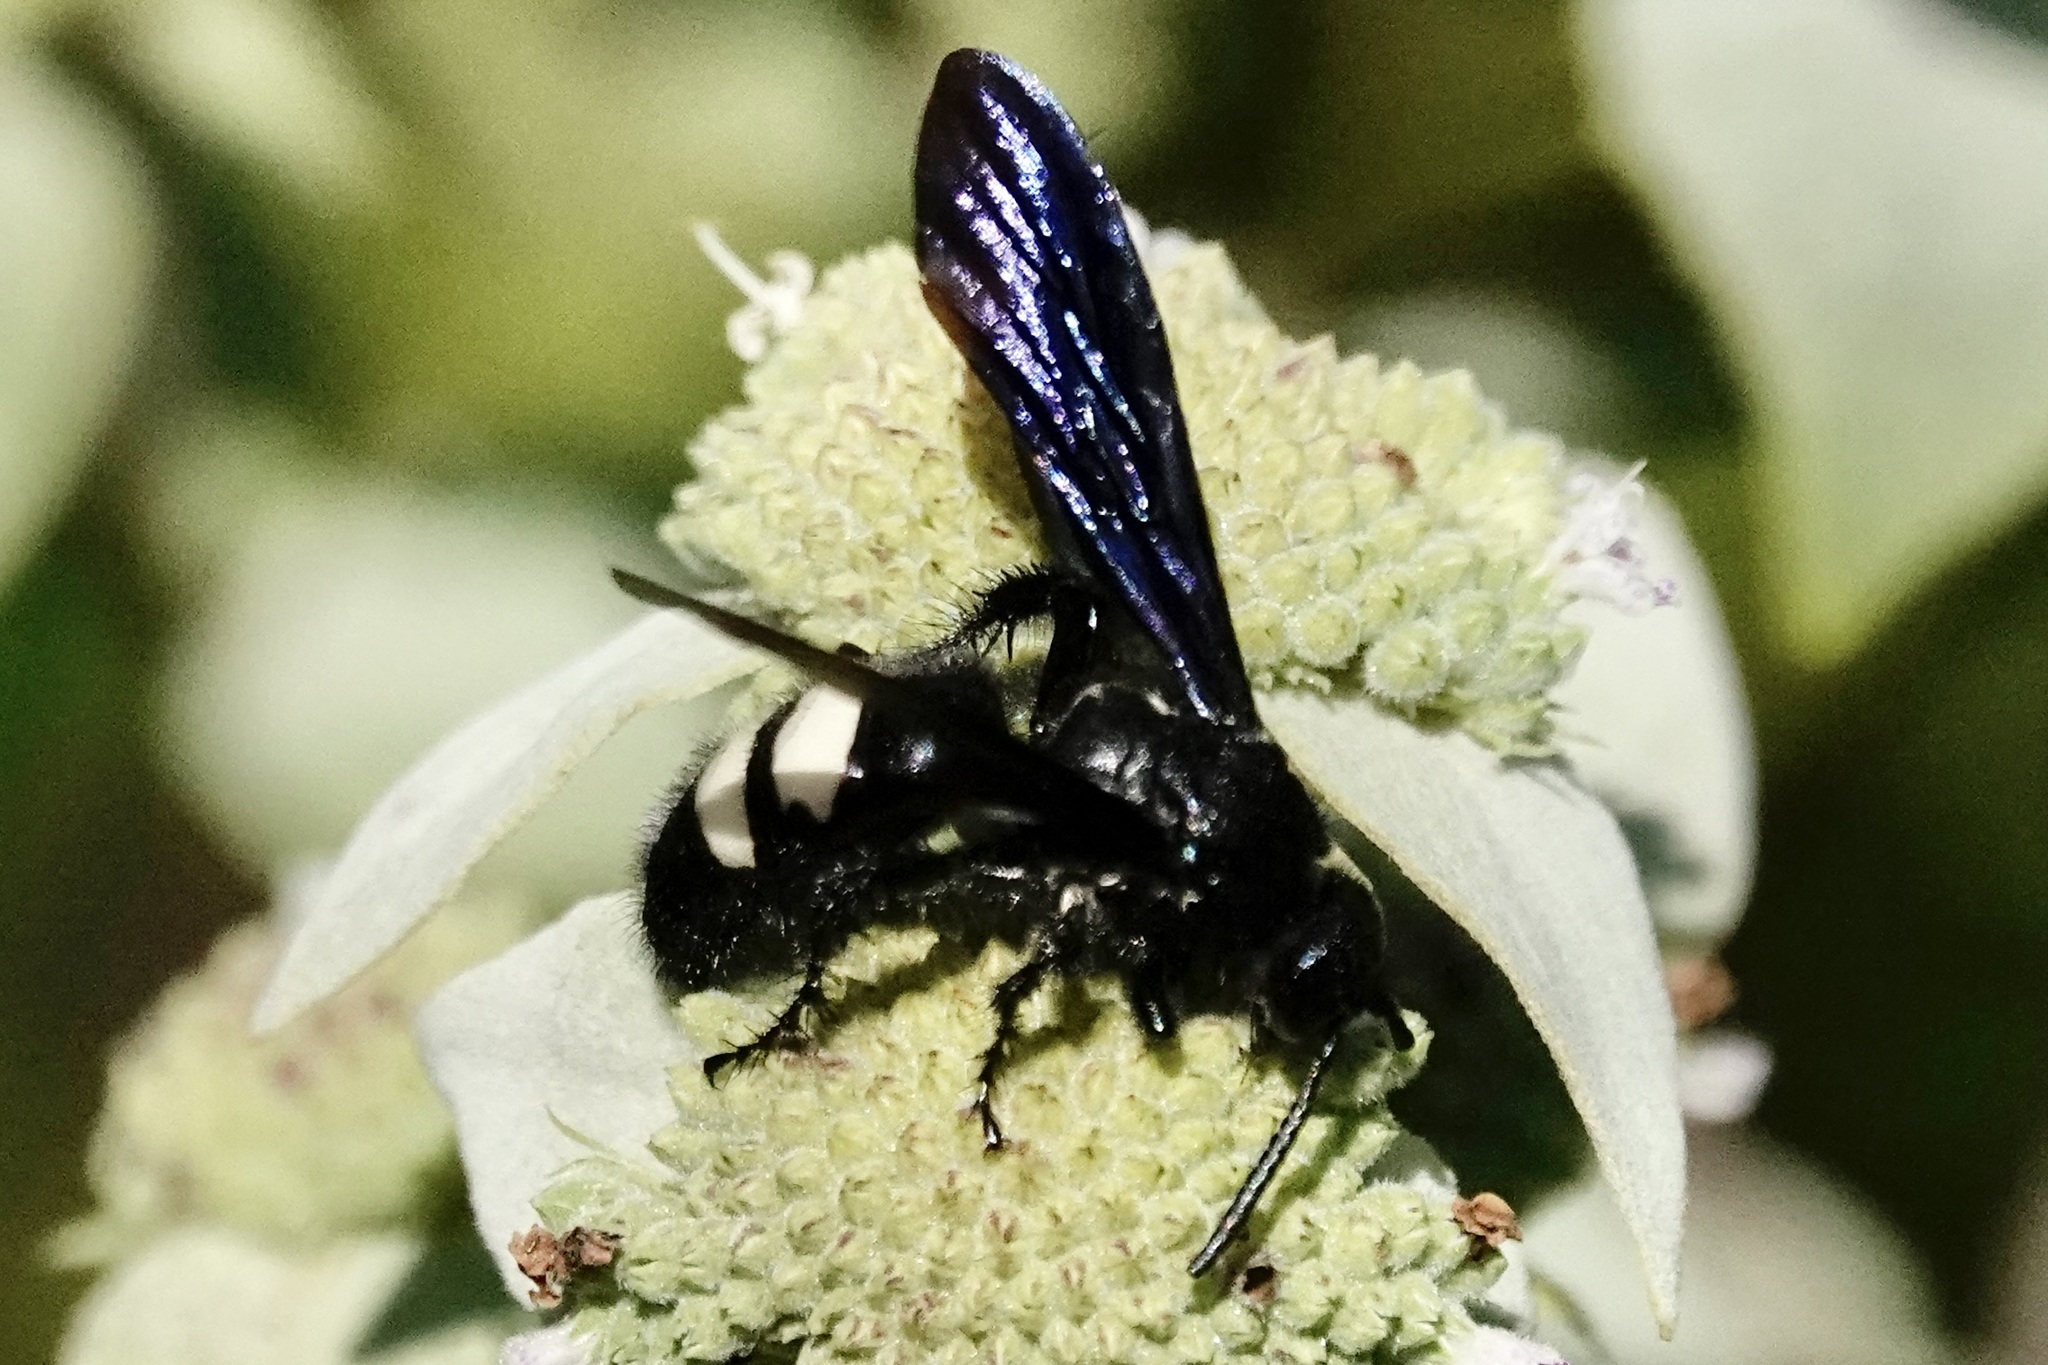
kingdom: Animalia
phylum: Arthropoda
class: Insecta
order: Hymenoptera
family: Scoliidae
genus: Scolia
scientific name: Scolia bicincta
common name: Double-banded scoliid wasp
